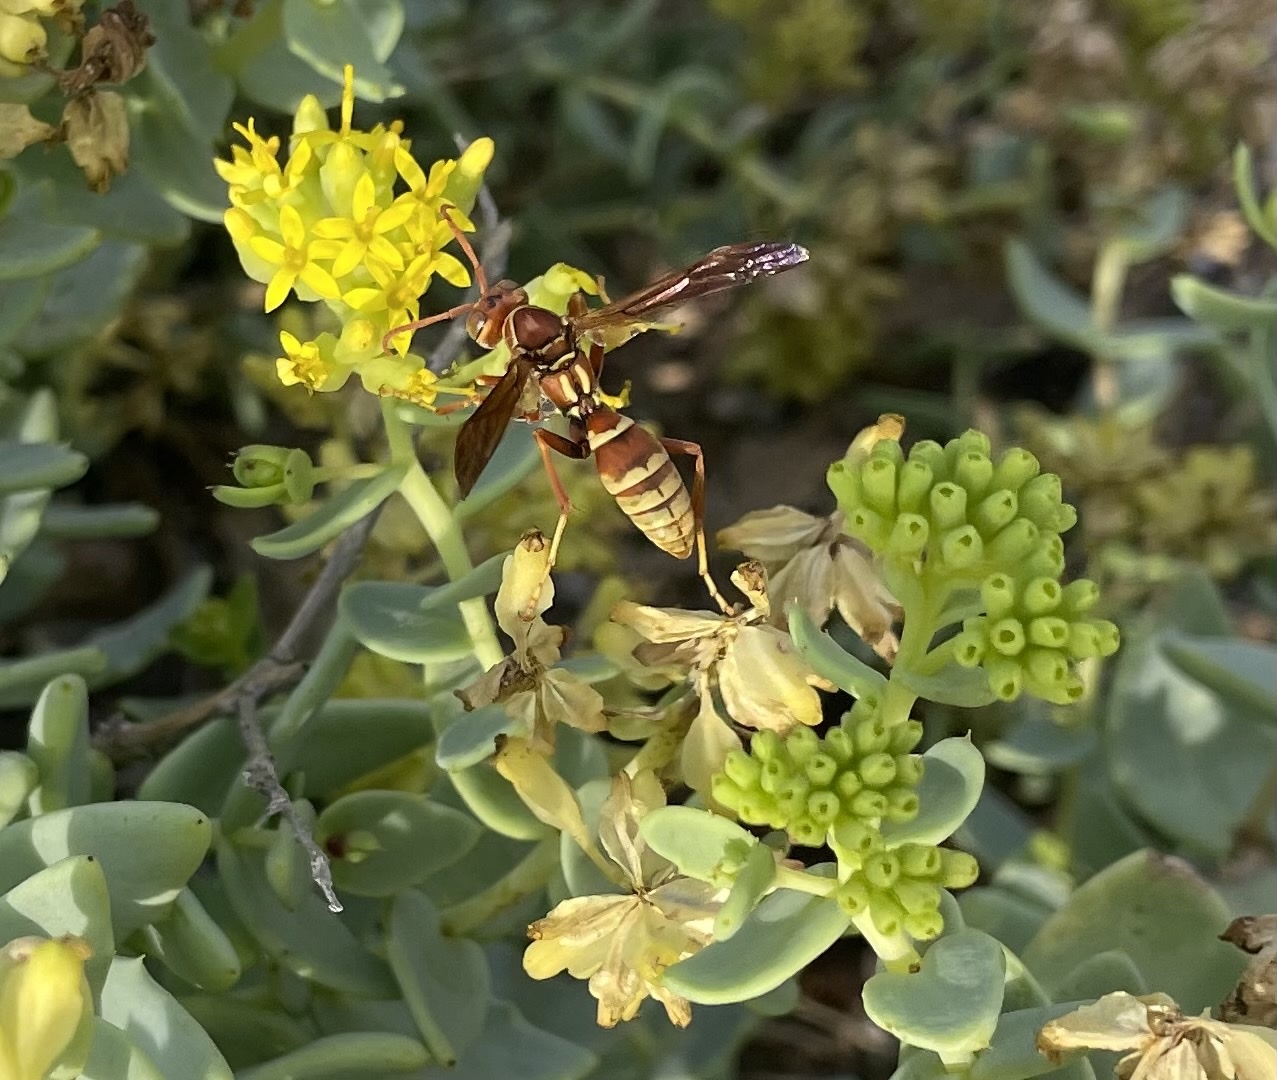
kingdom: Animalia
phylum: Arthropoda
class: Insecta
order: Hymenoptera
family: Eumenidae
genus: Polistes
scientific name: Polistes dorsalis
